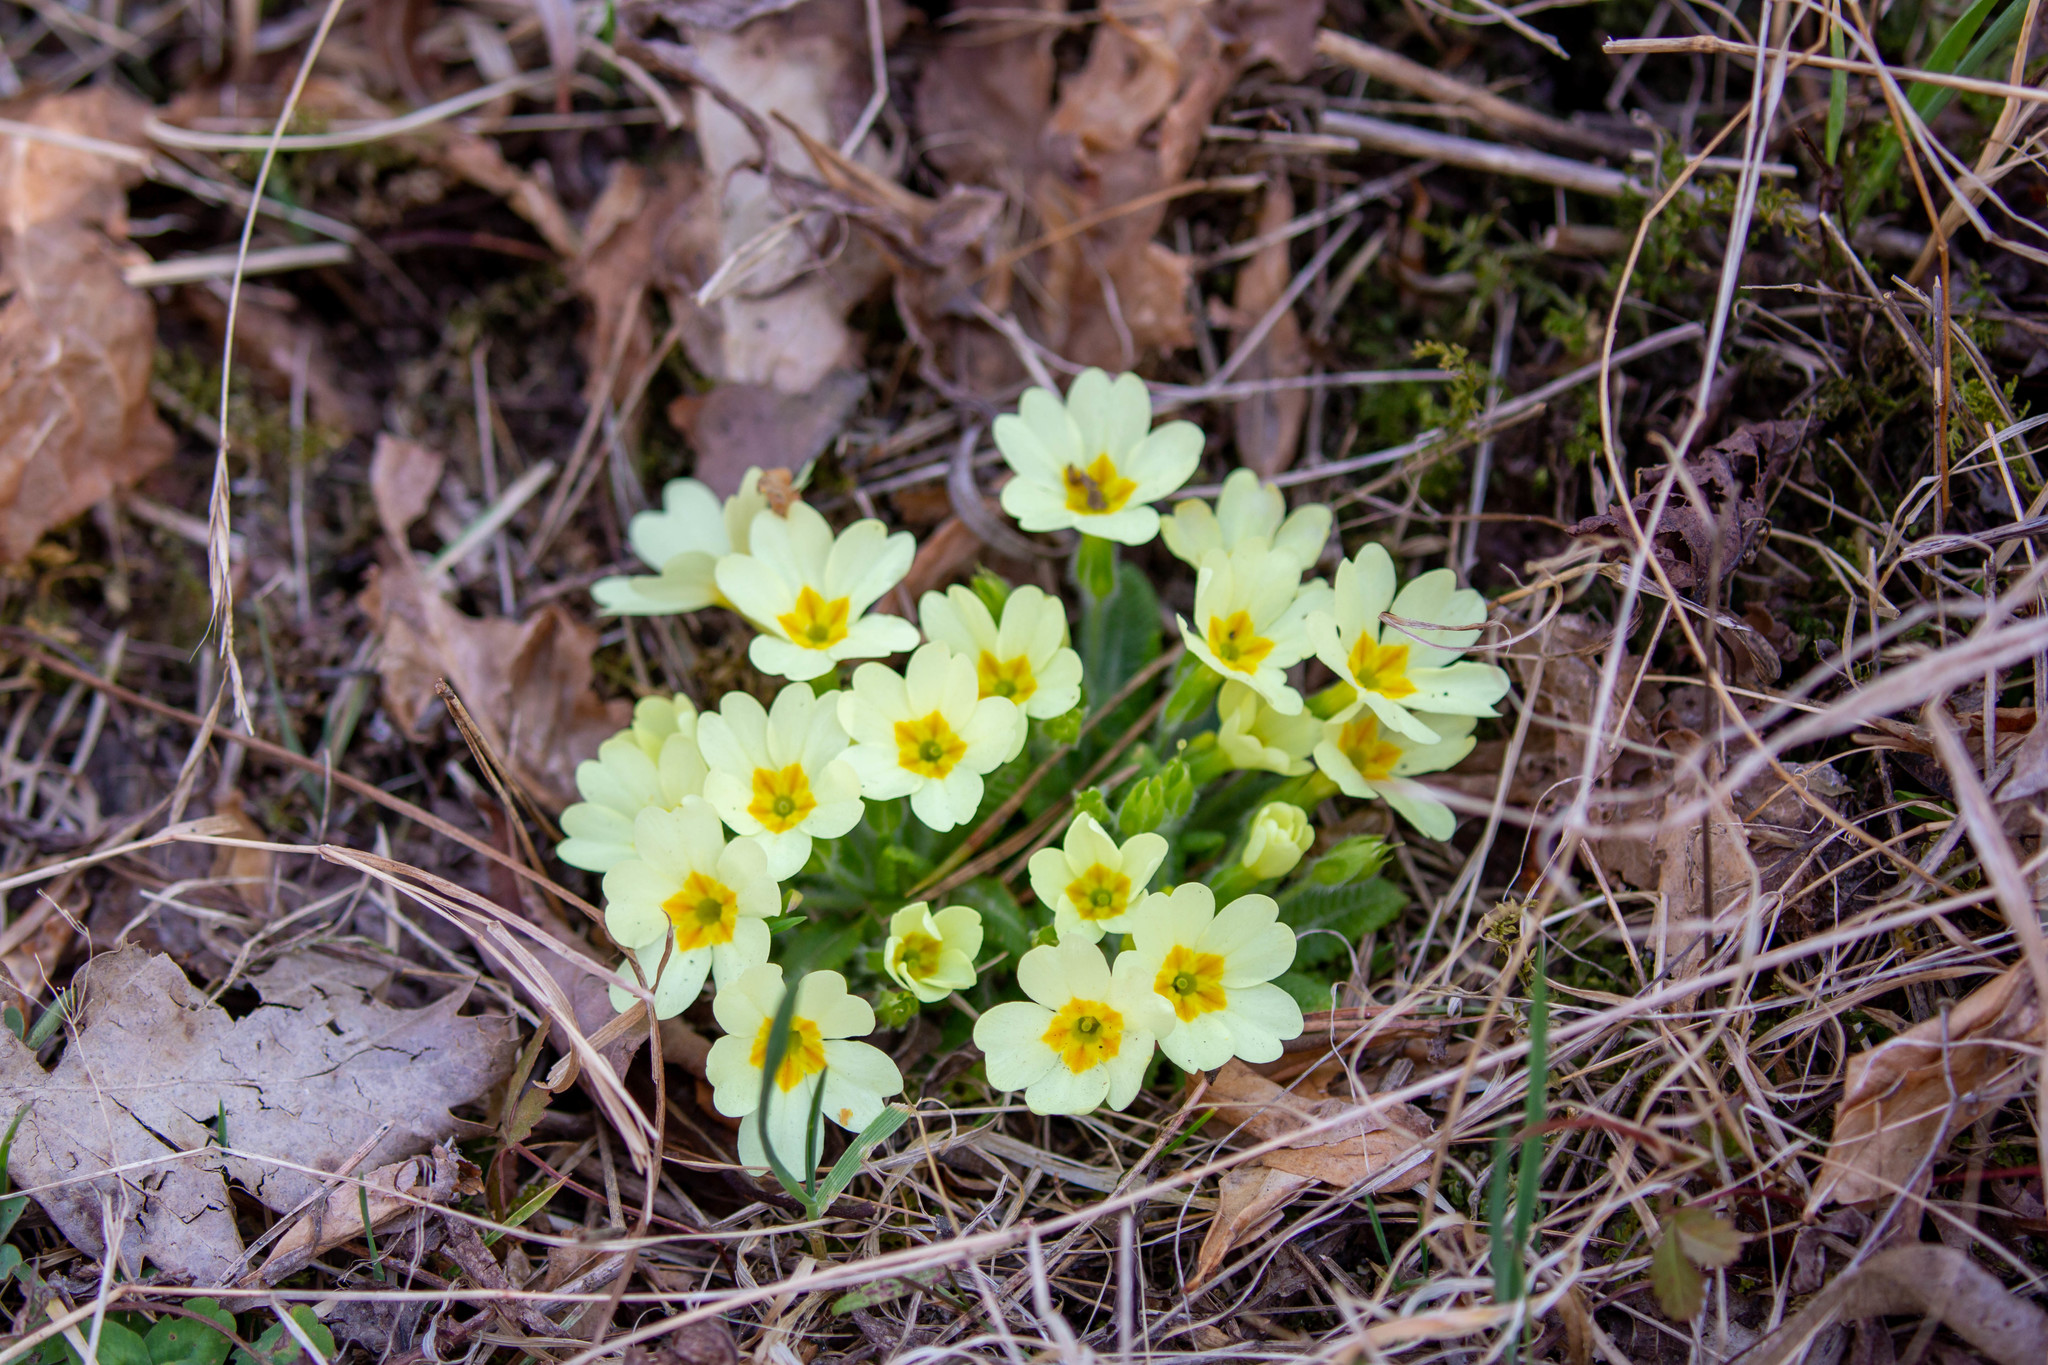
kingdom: Plantae
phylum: Tracheophyta
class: Magnoliopsida
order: Ericales
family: Primulaceae
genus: Primula
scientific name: Primula vulgaris
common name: Primrose
